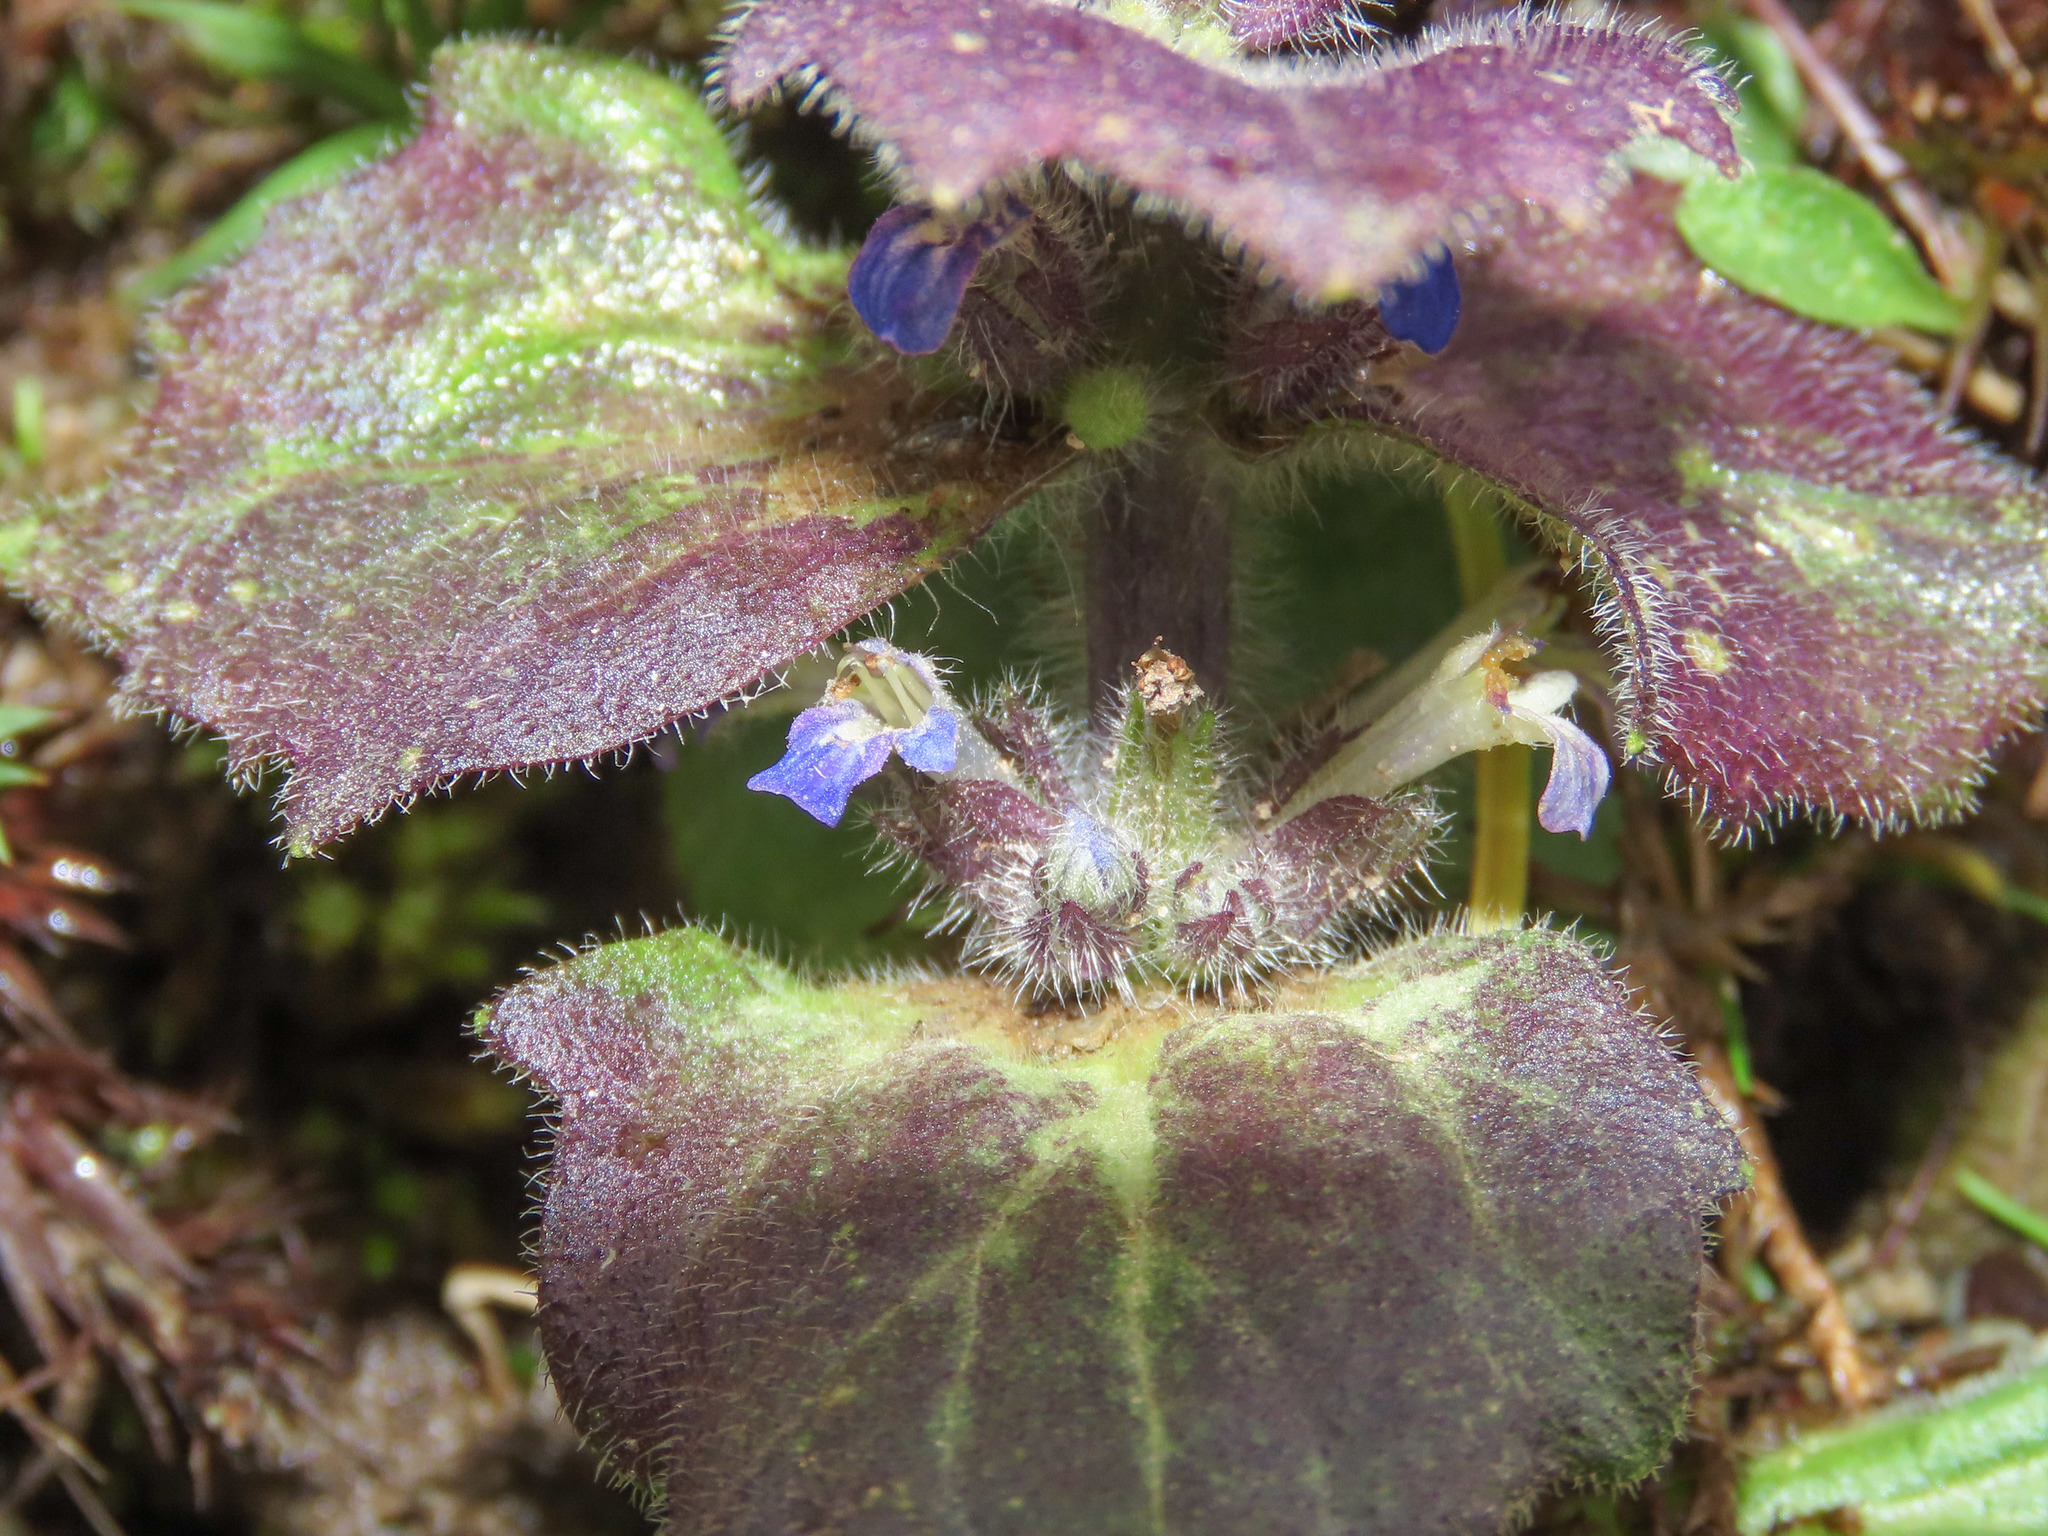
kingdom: Plantae
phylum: Tracheophyta
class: Magnoliopsida
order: Lamiales
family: Lamiaceae
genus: Ajuga
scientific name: Ajuga pyramidalis
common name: Pyramid bugle
